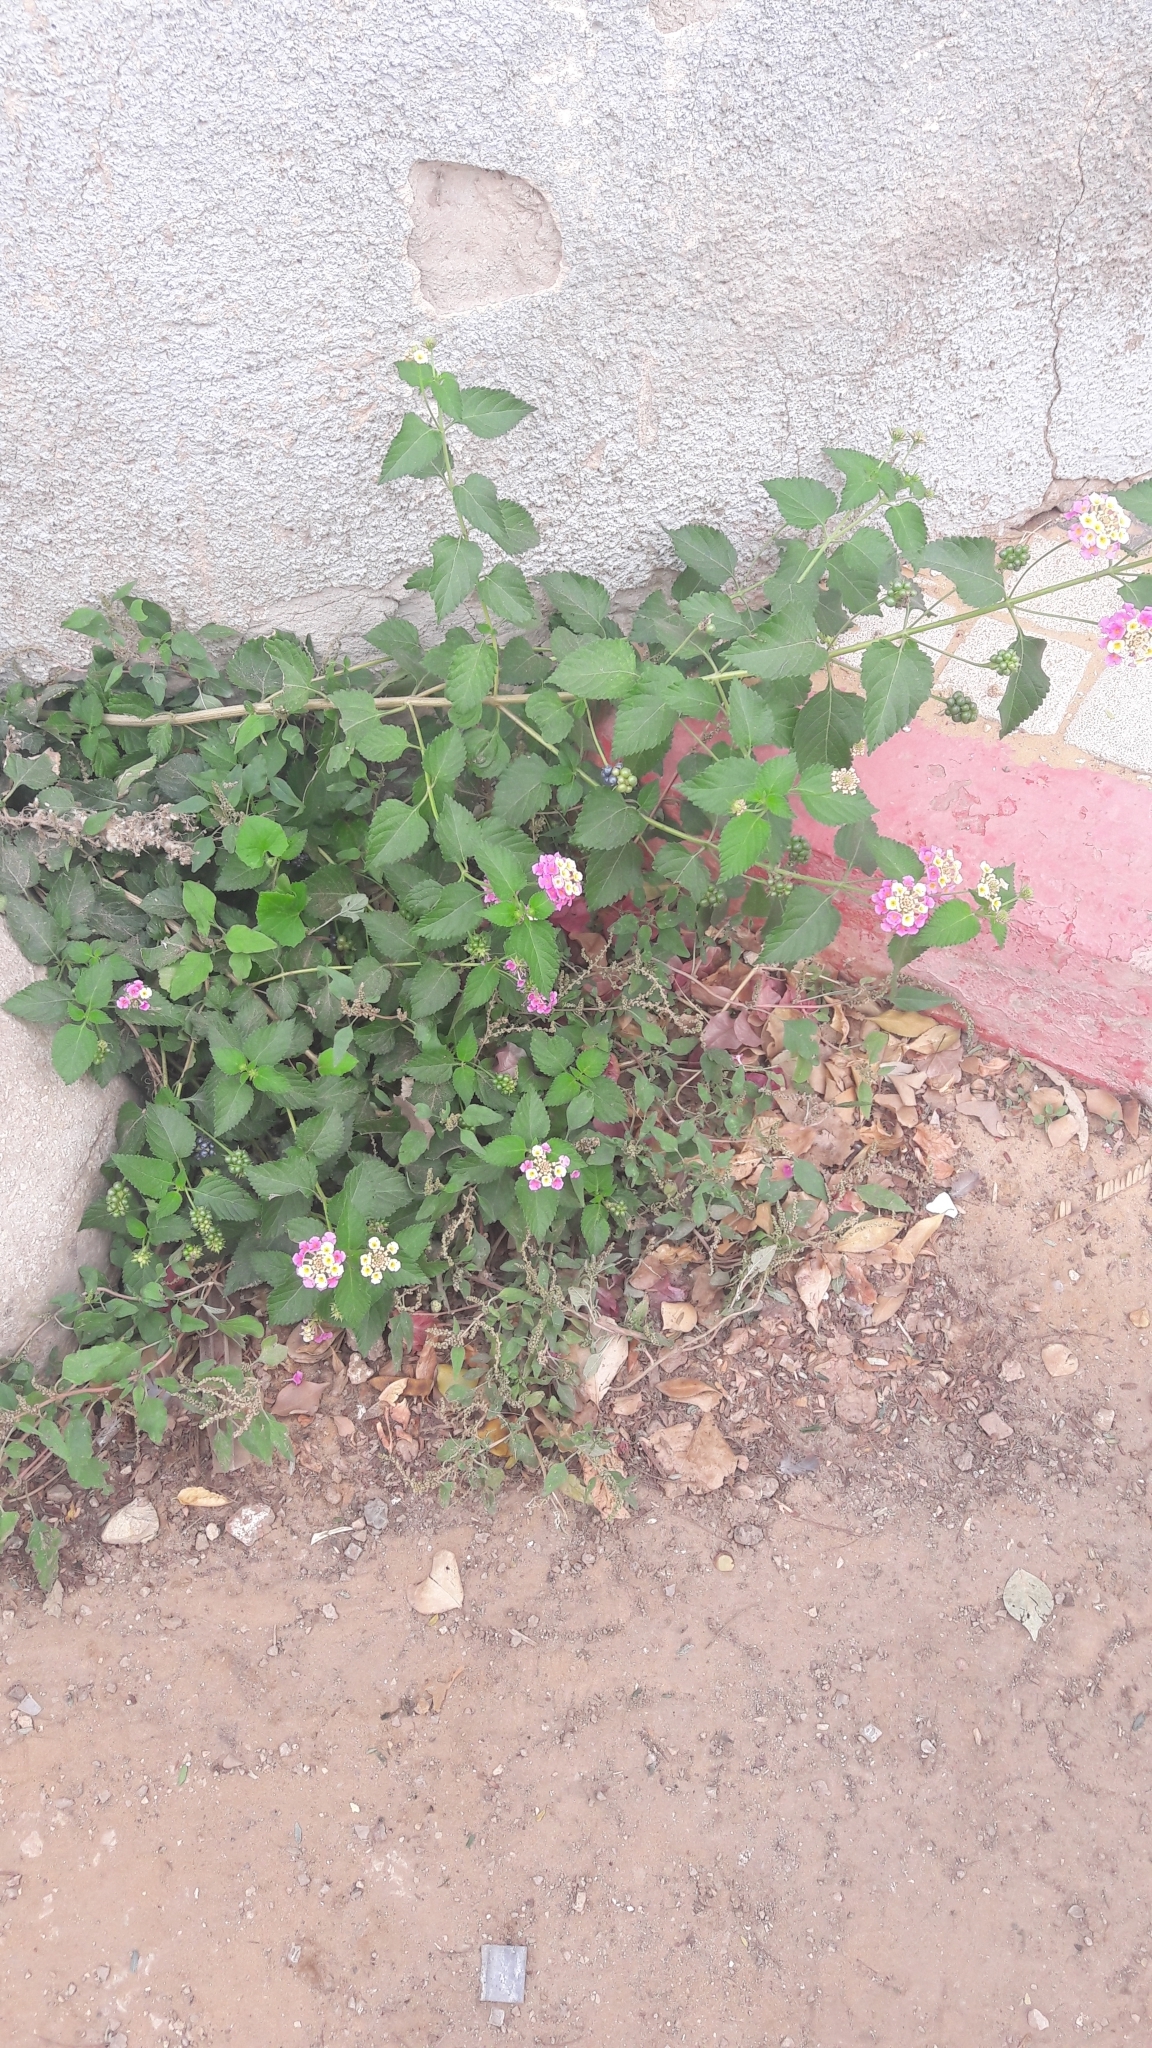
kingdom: Plantae
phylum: Tracheophyta
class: Magnoliopsida
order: Lamiales
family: Verbenaceae
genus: Lantana
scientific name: Lantana camara
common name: Lantana
